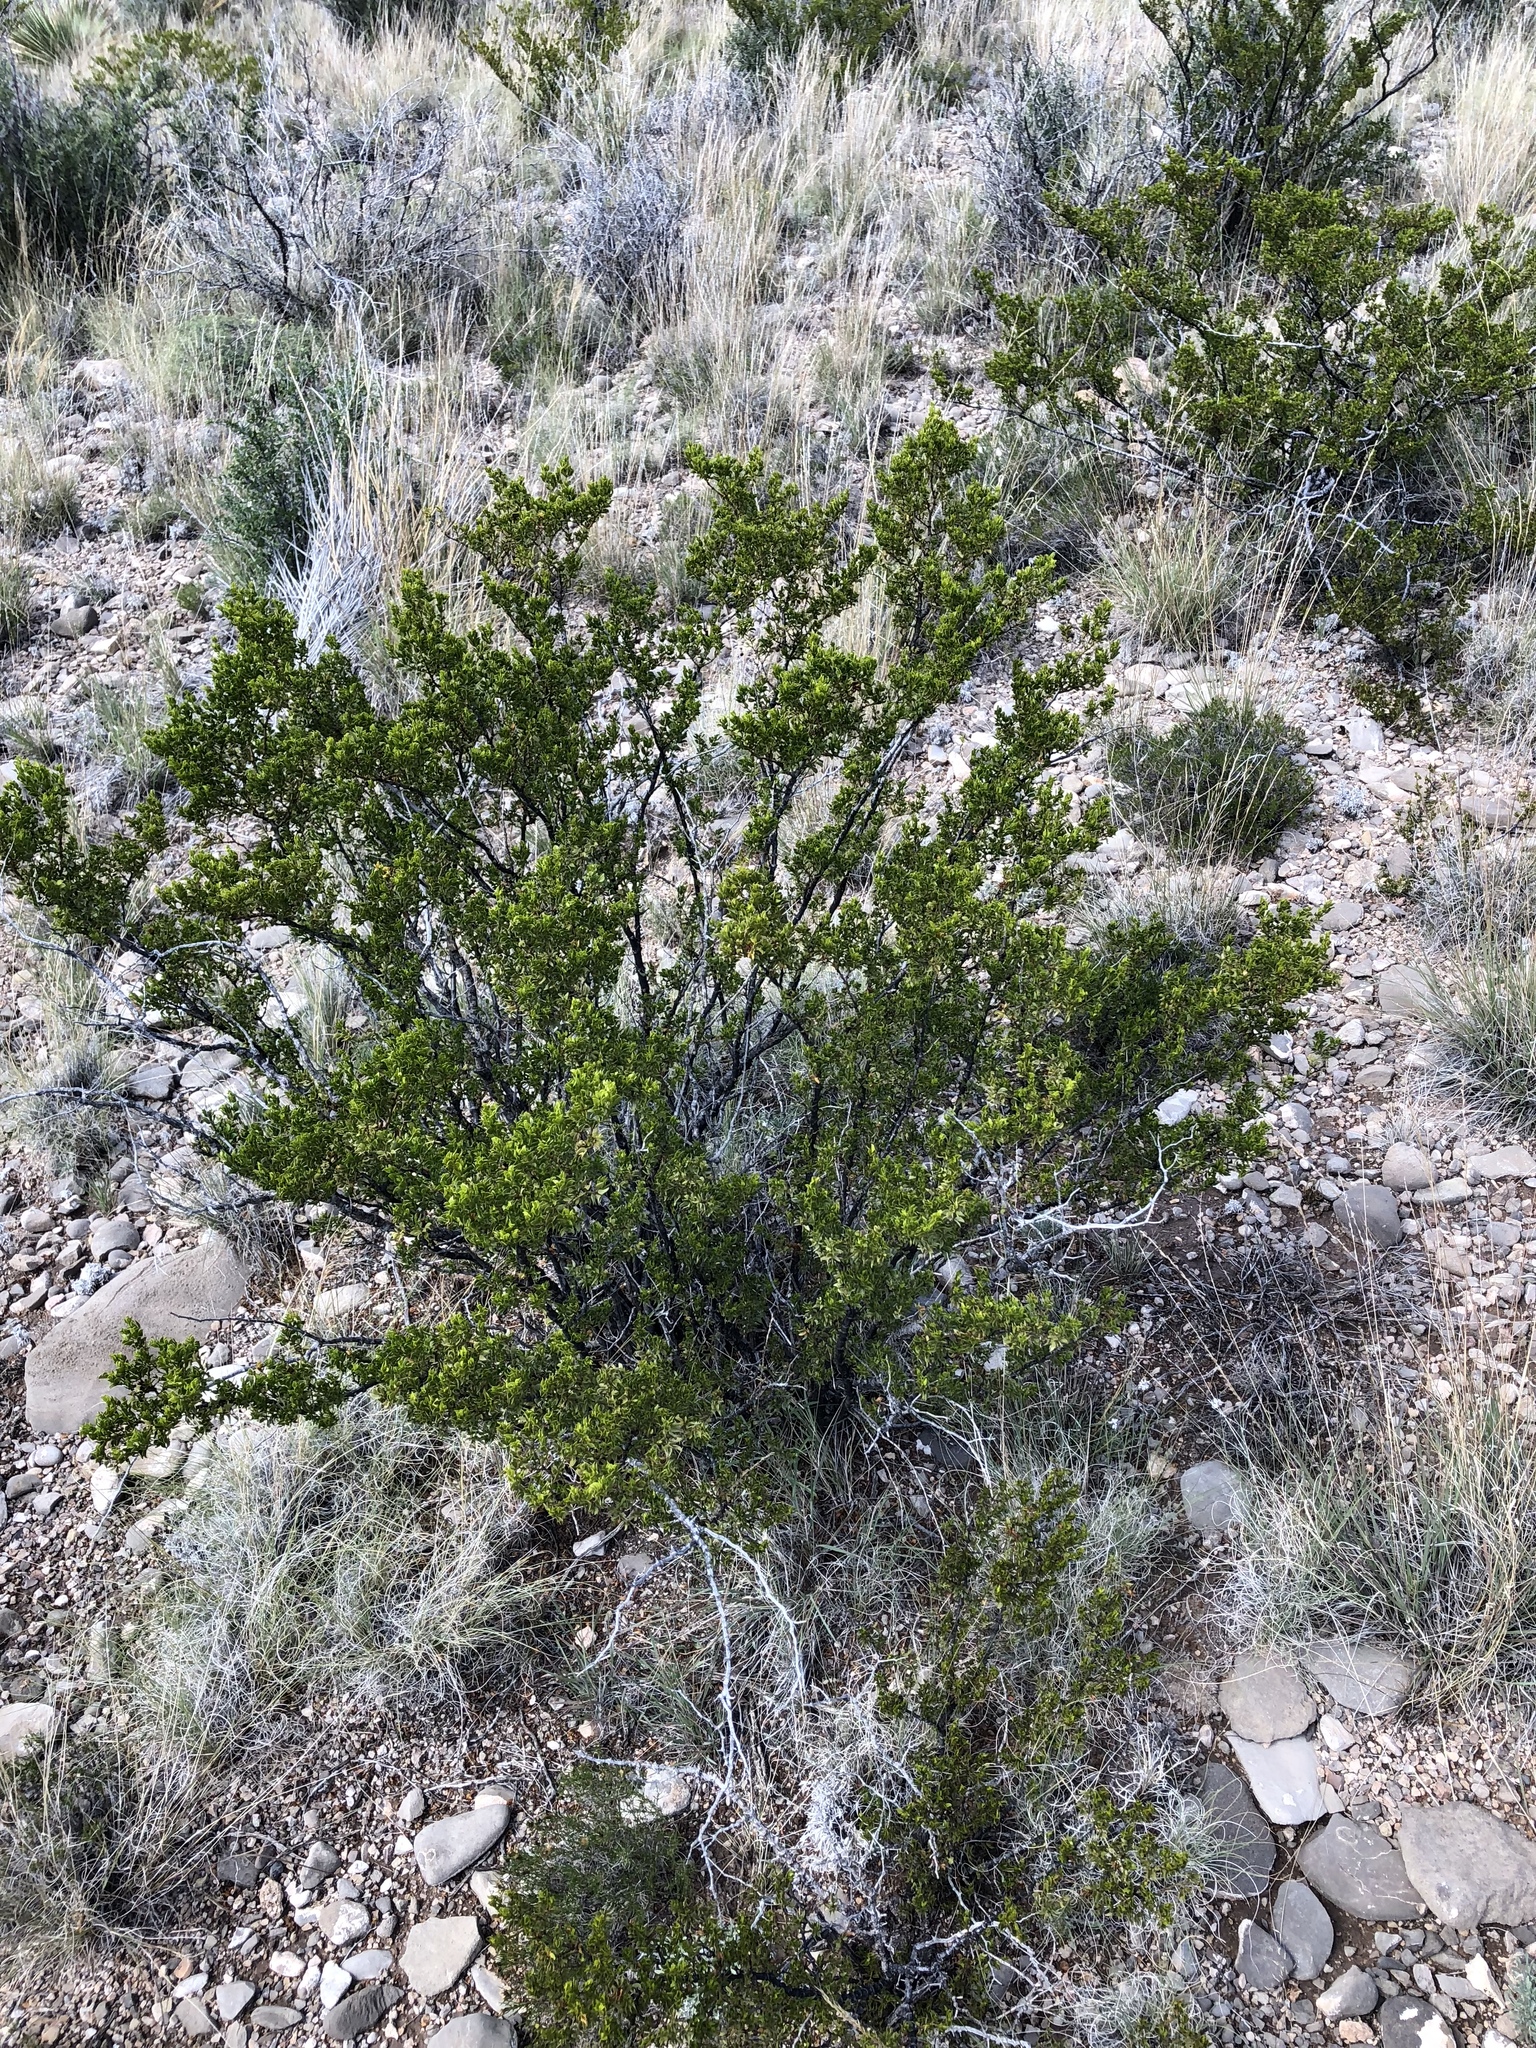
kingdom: Plantae
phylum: Tracheophyta
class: Magnoliopsida
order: Zygophyllales
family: Zygophyllaceae
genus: Larrea
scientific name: Larrea tridentata
